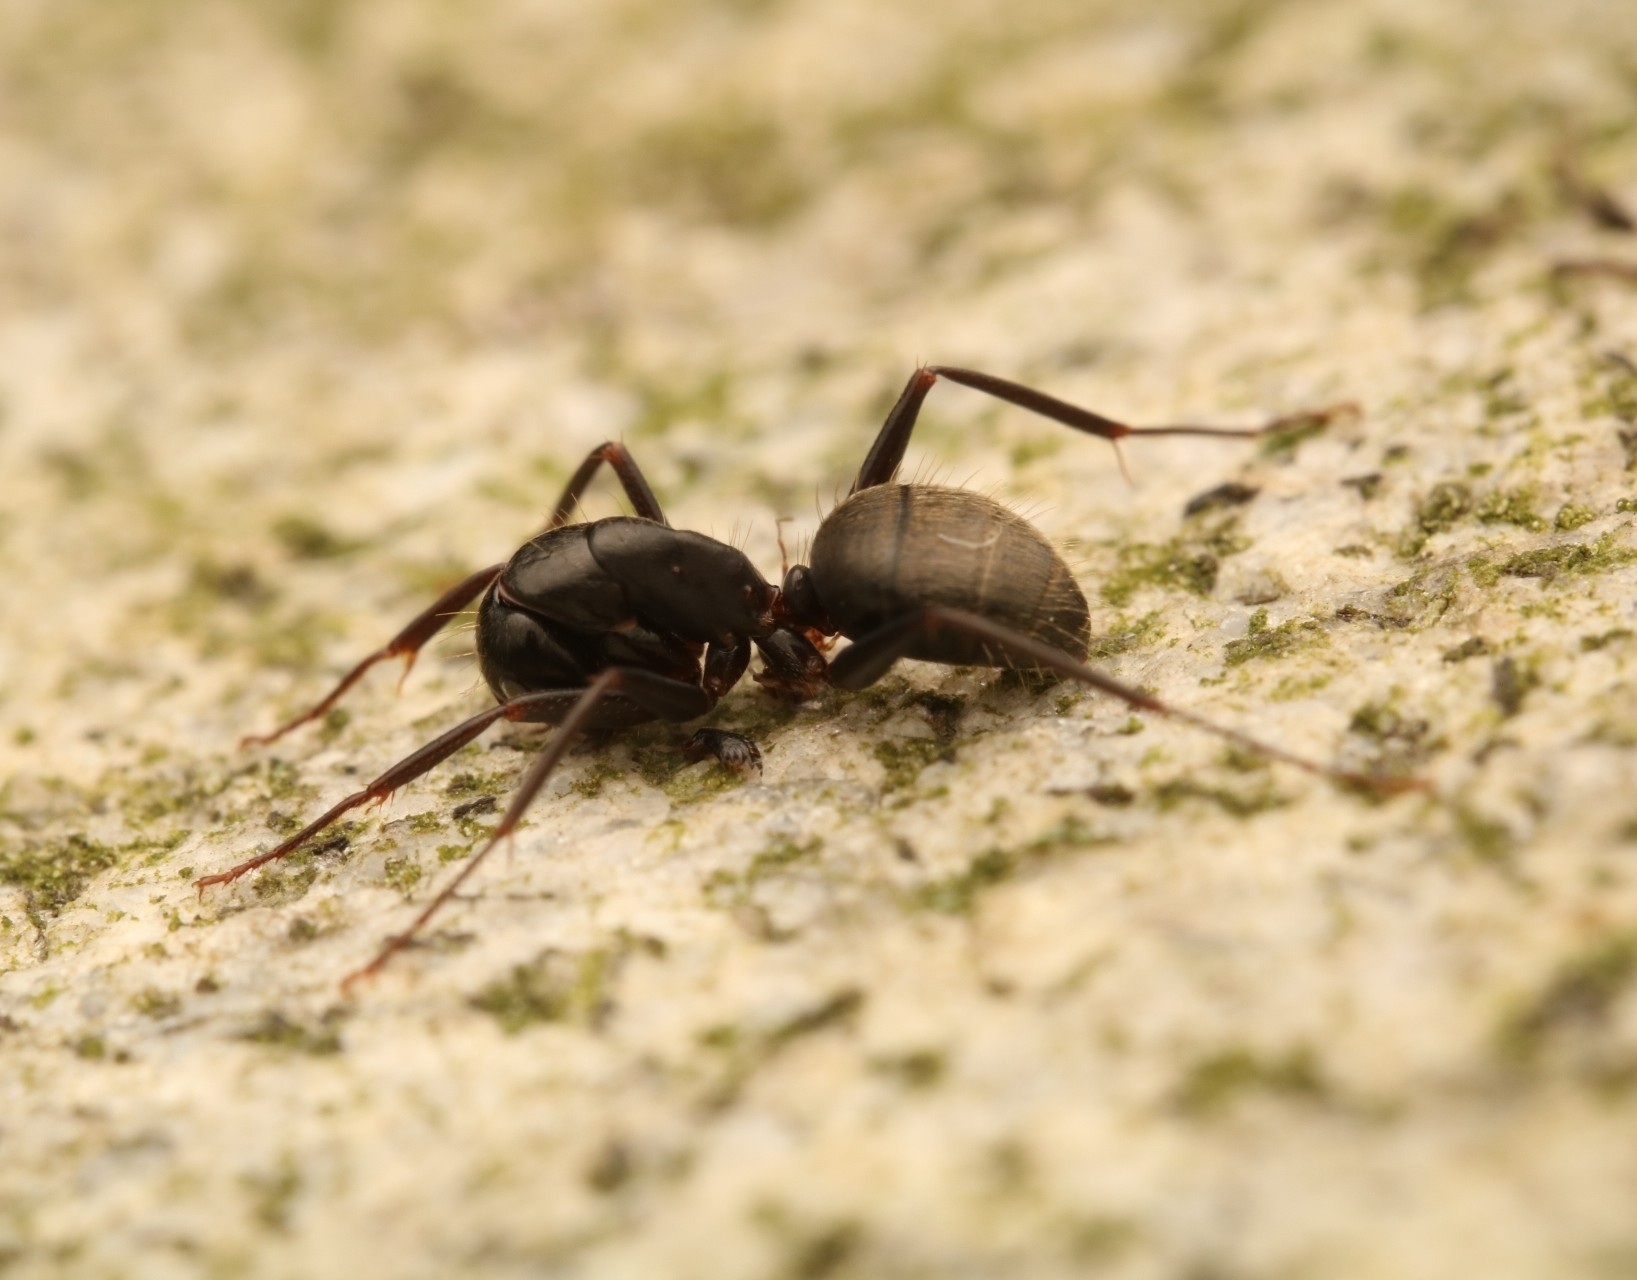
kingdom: Animalia
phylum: Arthropoda
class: Insecta
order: Hymenoptera
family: Formicidae
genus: Camponotus
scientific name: Camponotus pennsylvanicus
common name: Black carpenter ant
